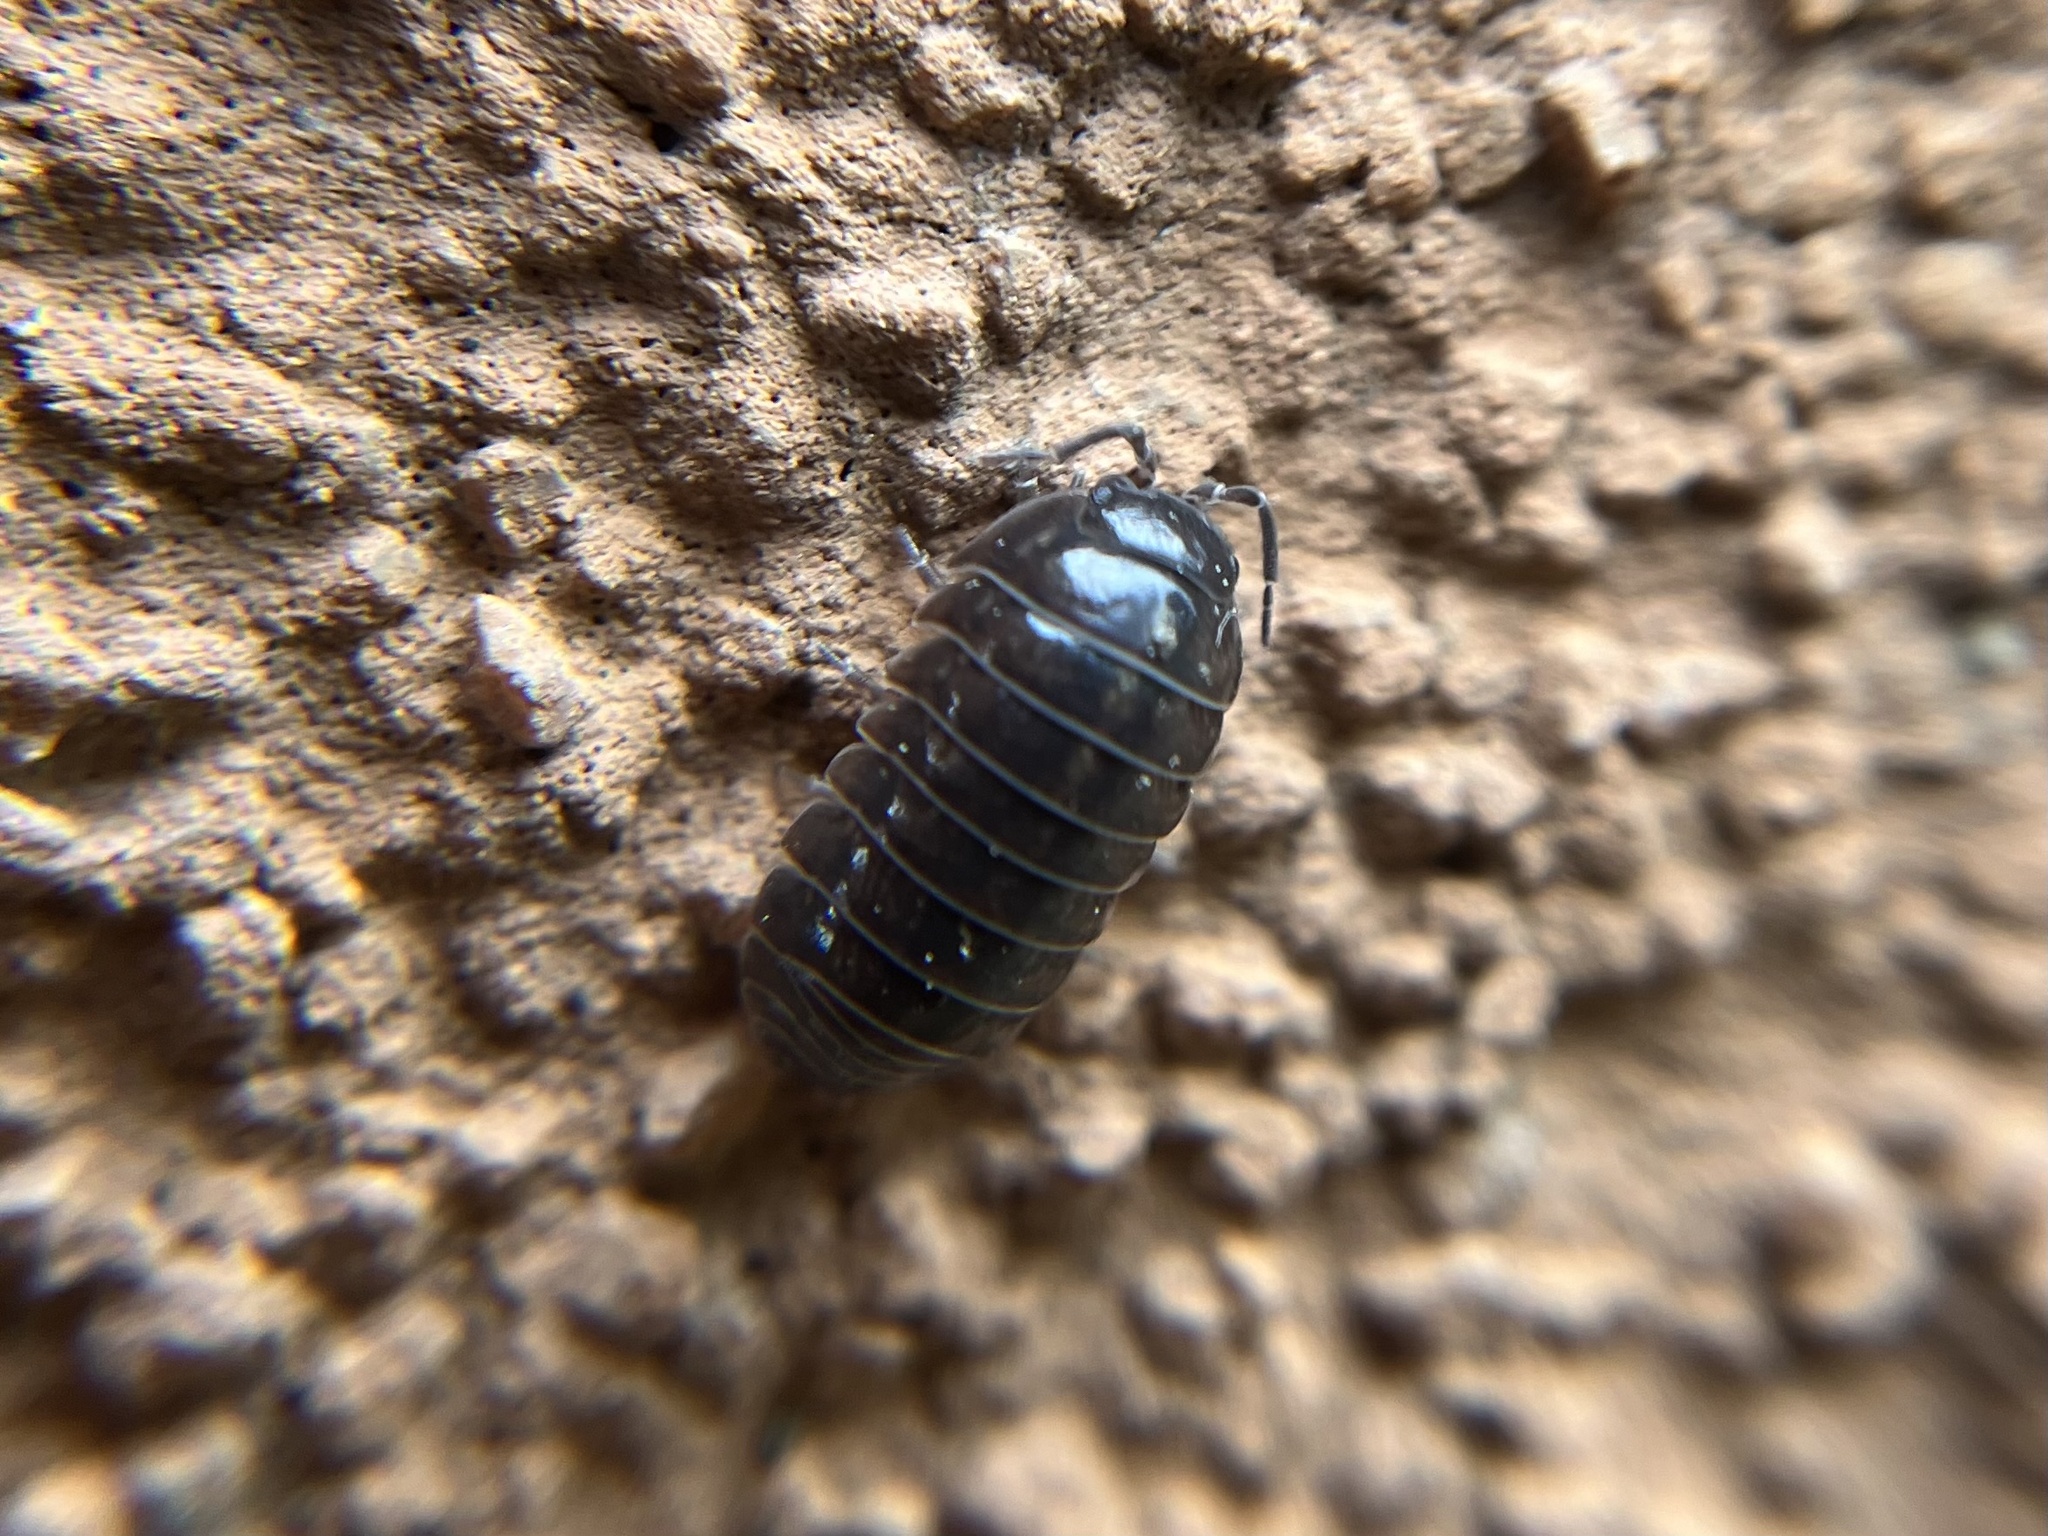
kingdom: Animalia
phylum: Arthropoda
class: Malacostraca
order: Isopoda
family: Armadillidiidae
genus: Armadillidium
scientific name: Armadillidium vulgare
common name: Common pill woodlouse
